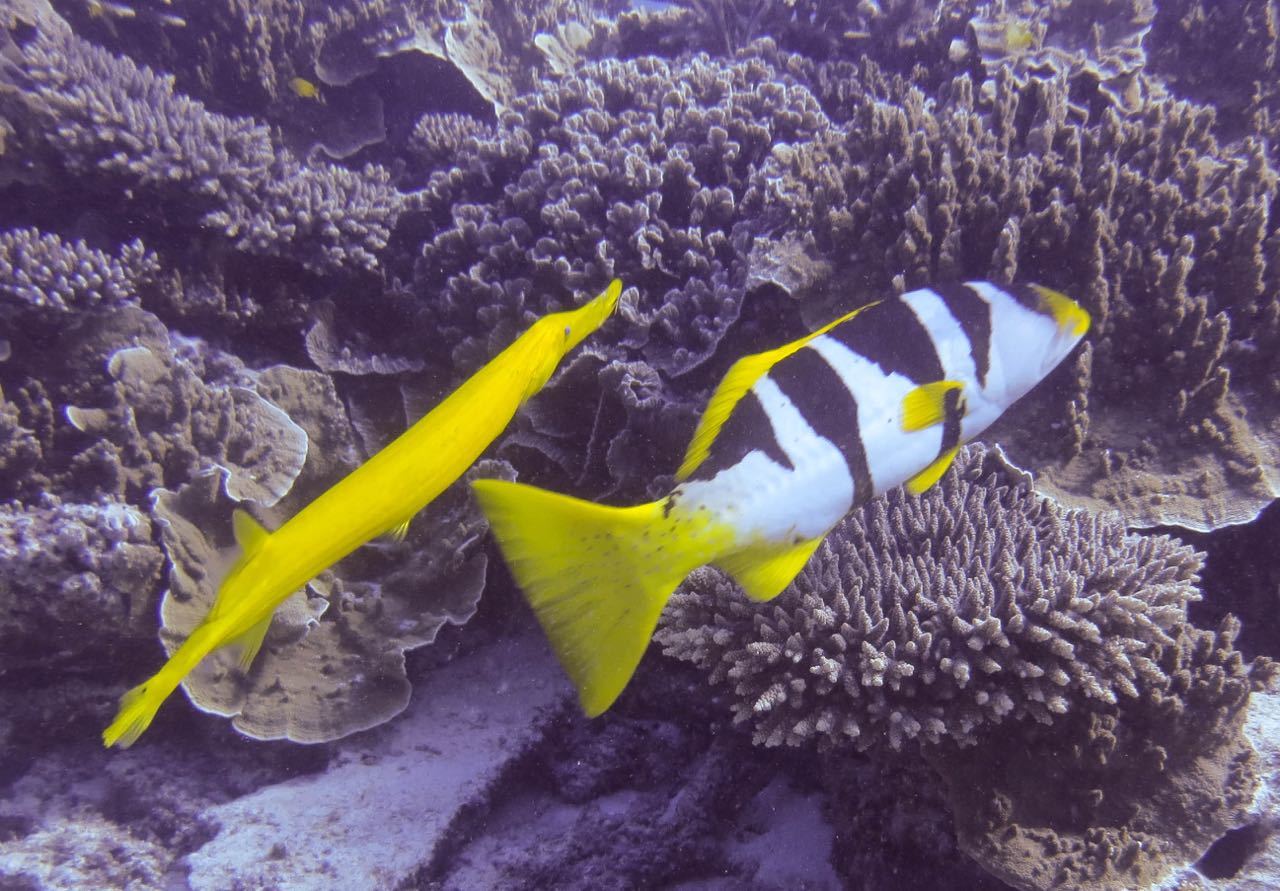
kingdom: Animalia
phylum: Chordata
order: Perciformes
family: Serranidae
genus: Plectropomus
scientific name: Plectropomus laevis
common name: Chinese footballer
